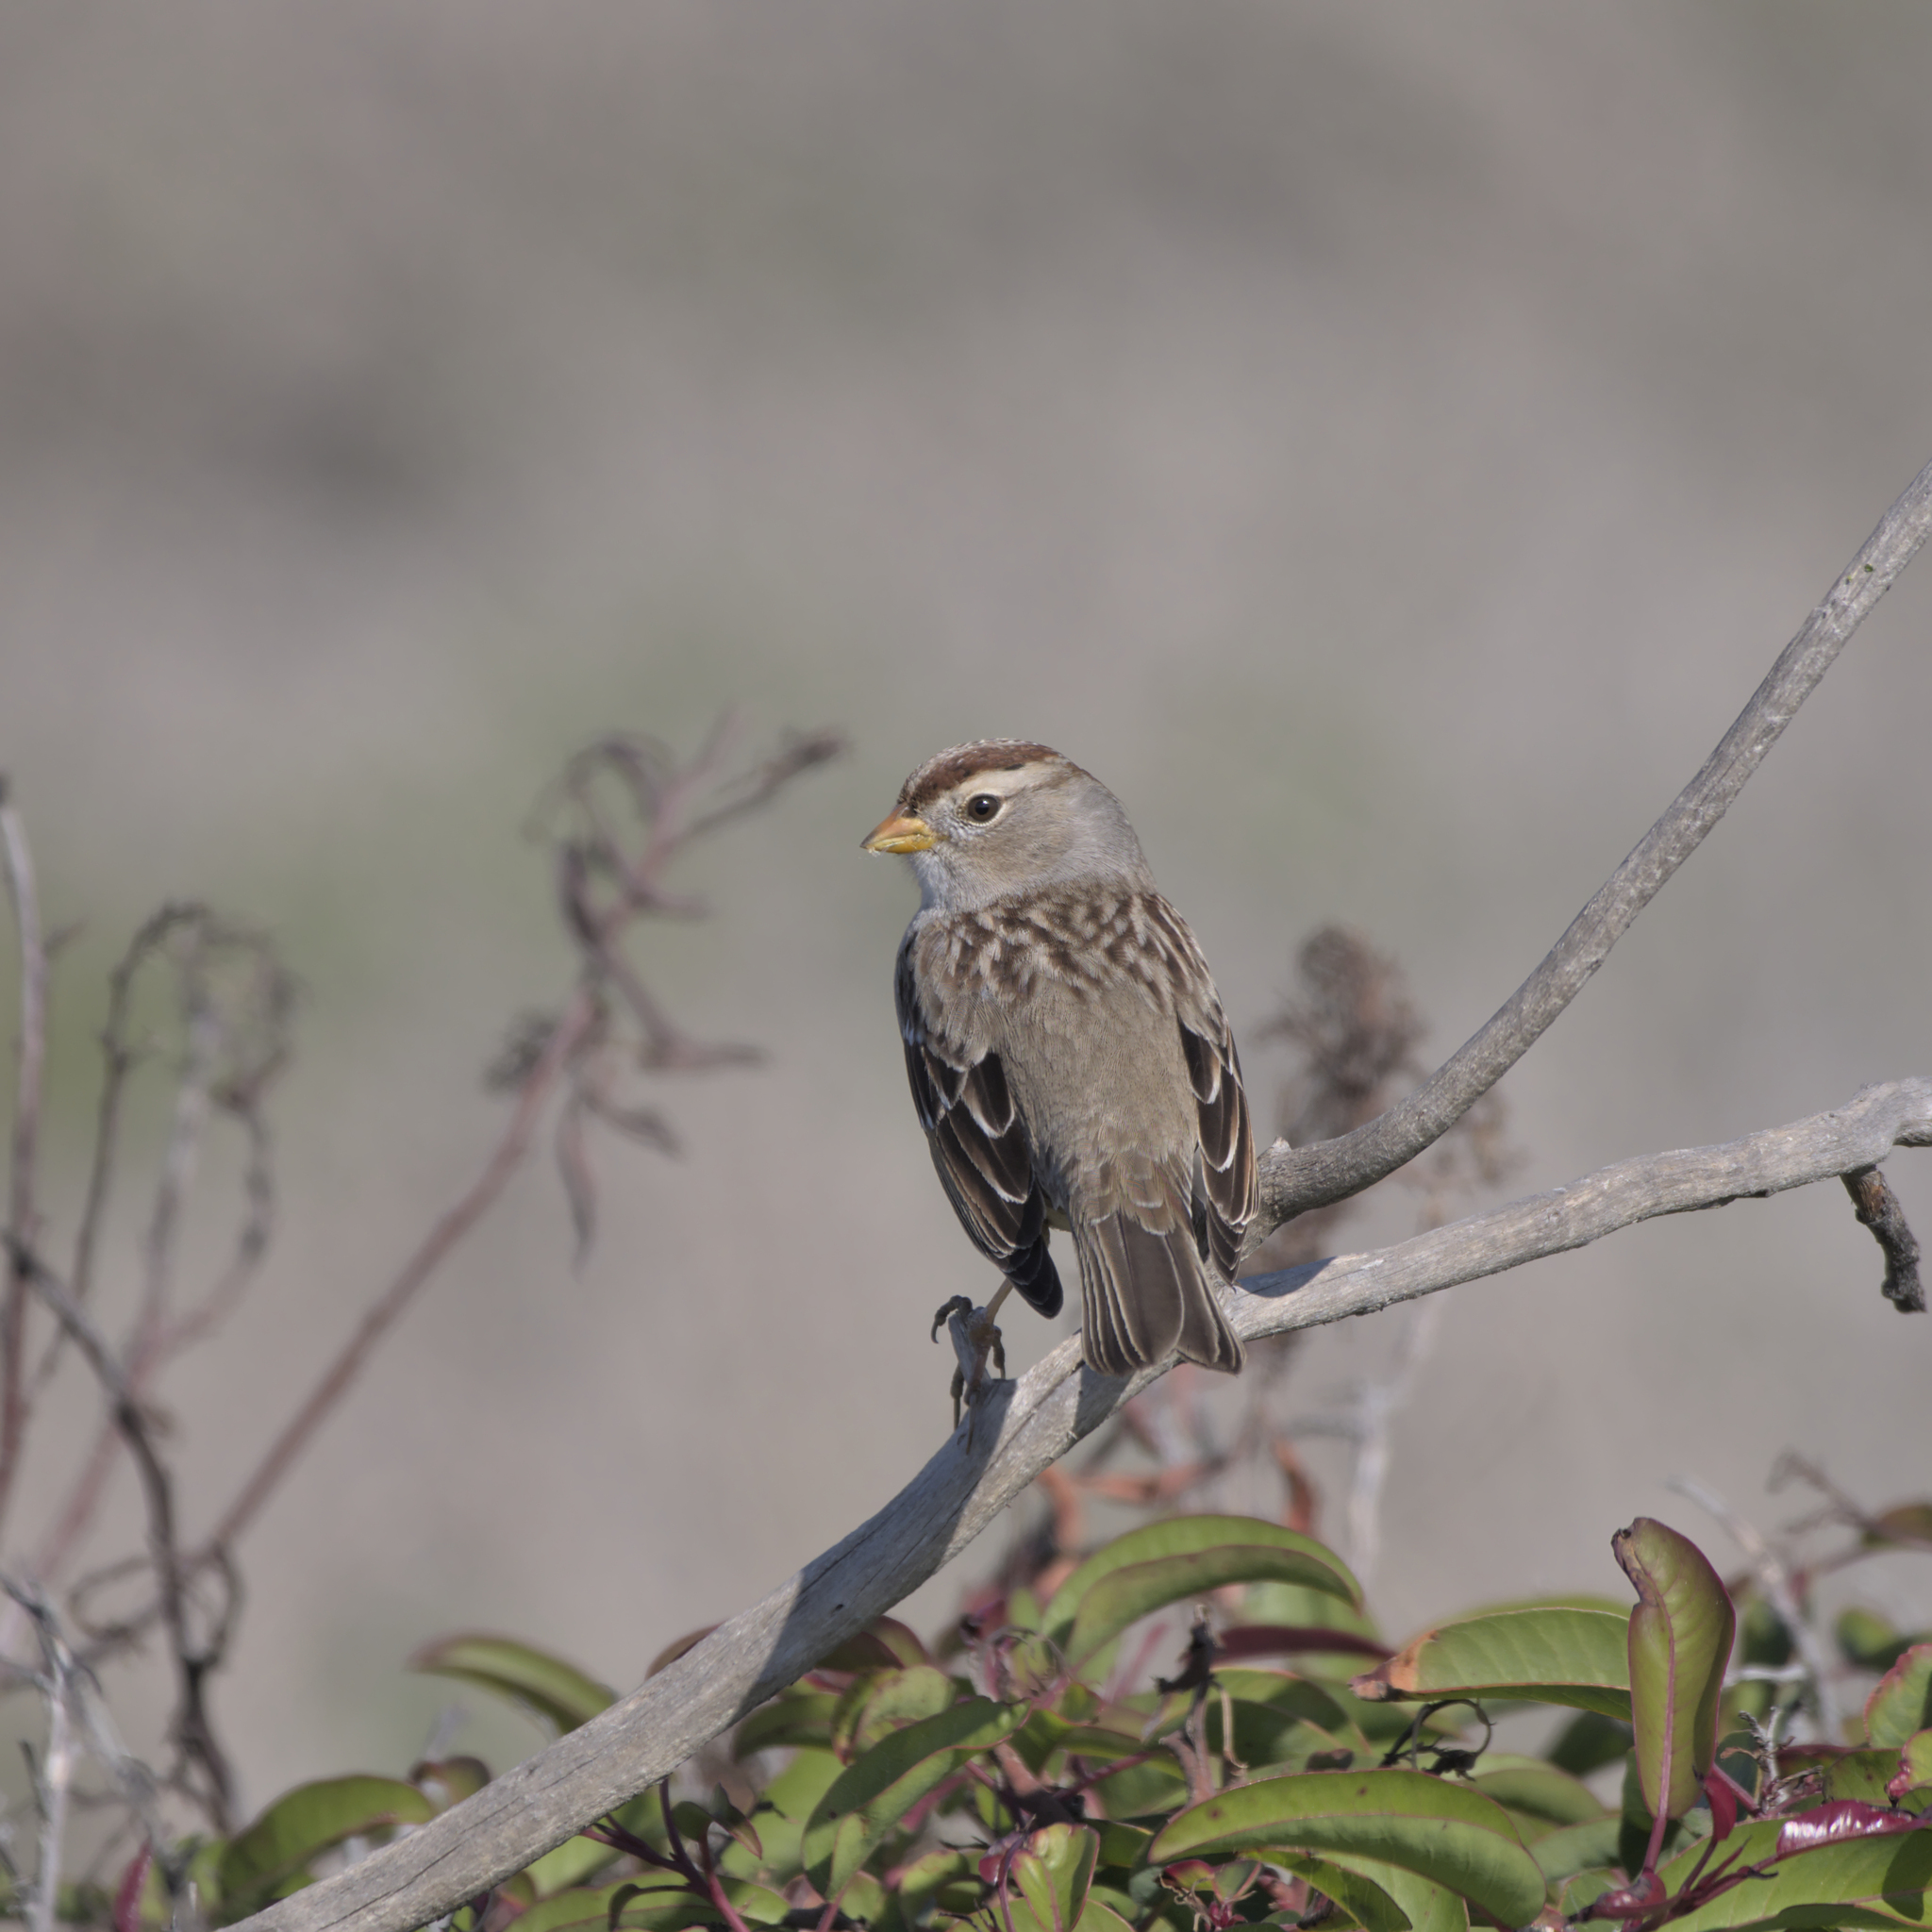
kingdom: Animalia
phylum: Chordata
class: Aves
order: Passeriformes
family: Passerellidae
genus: Zonotrichia
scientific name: Zonotrichia leucophrys
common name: White-crowned sparrow
